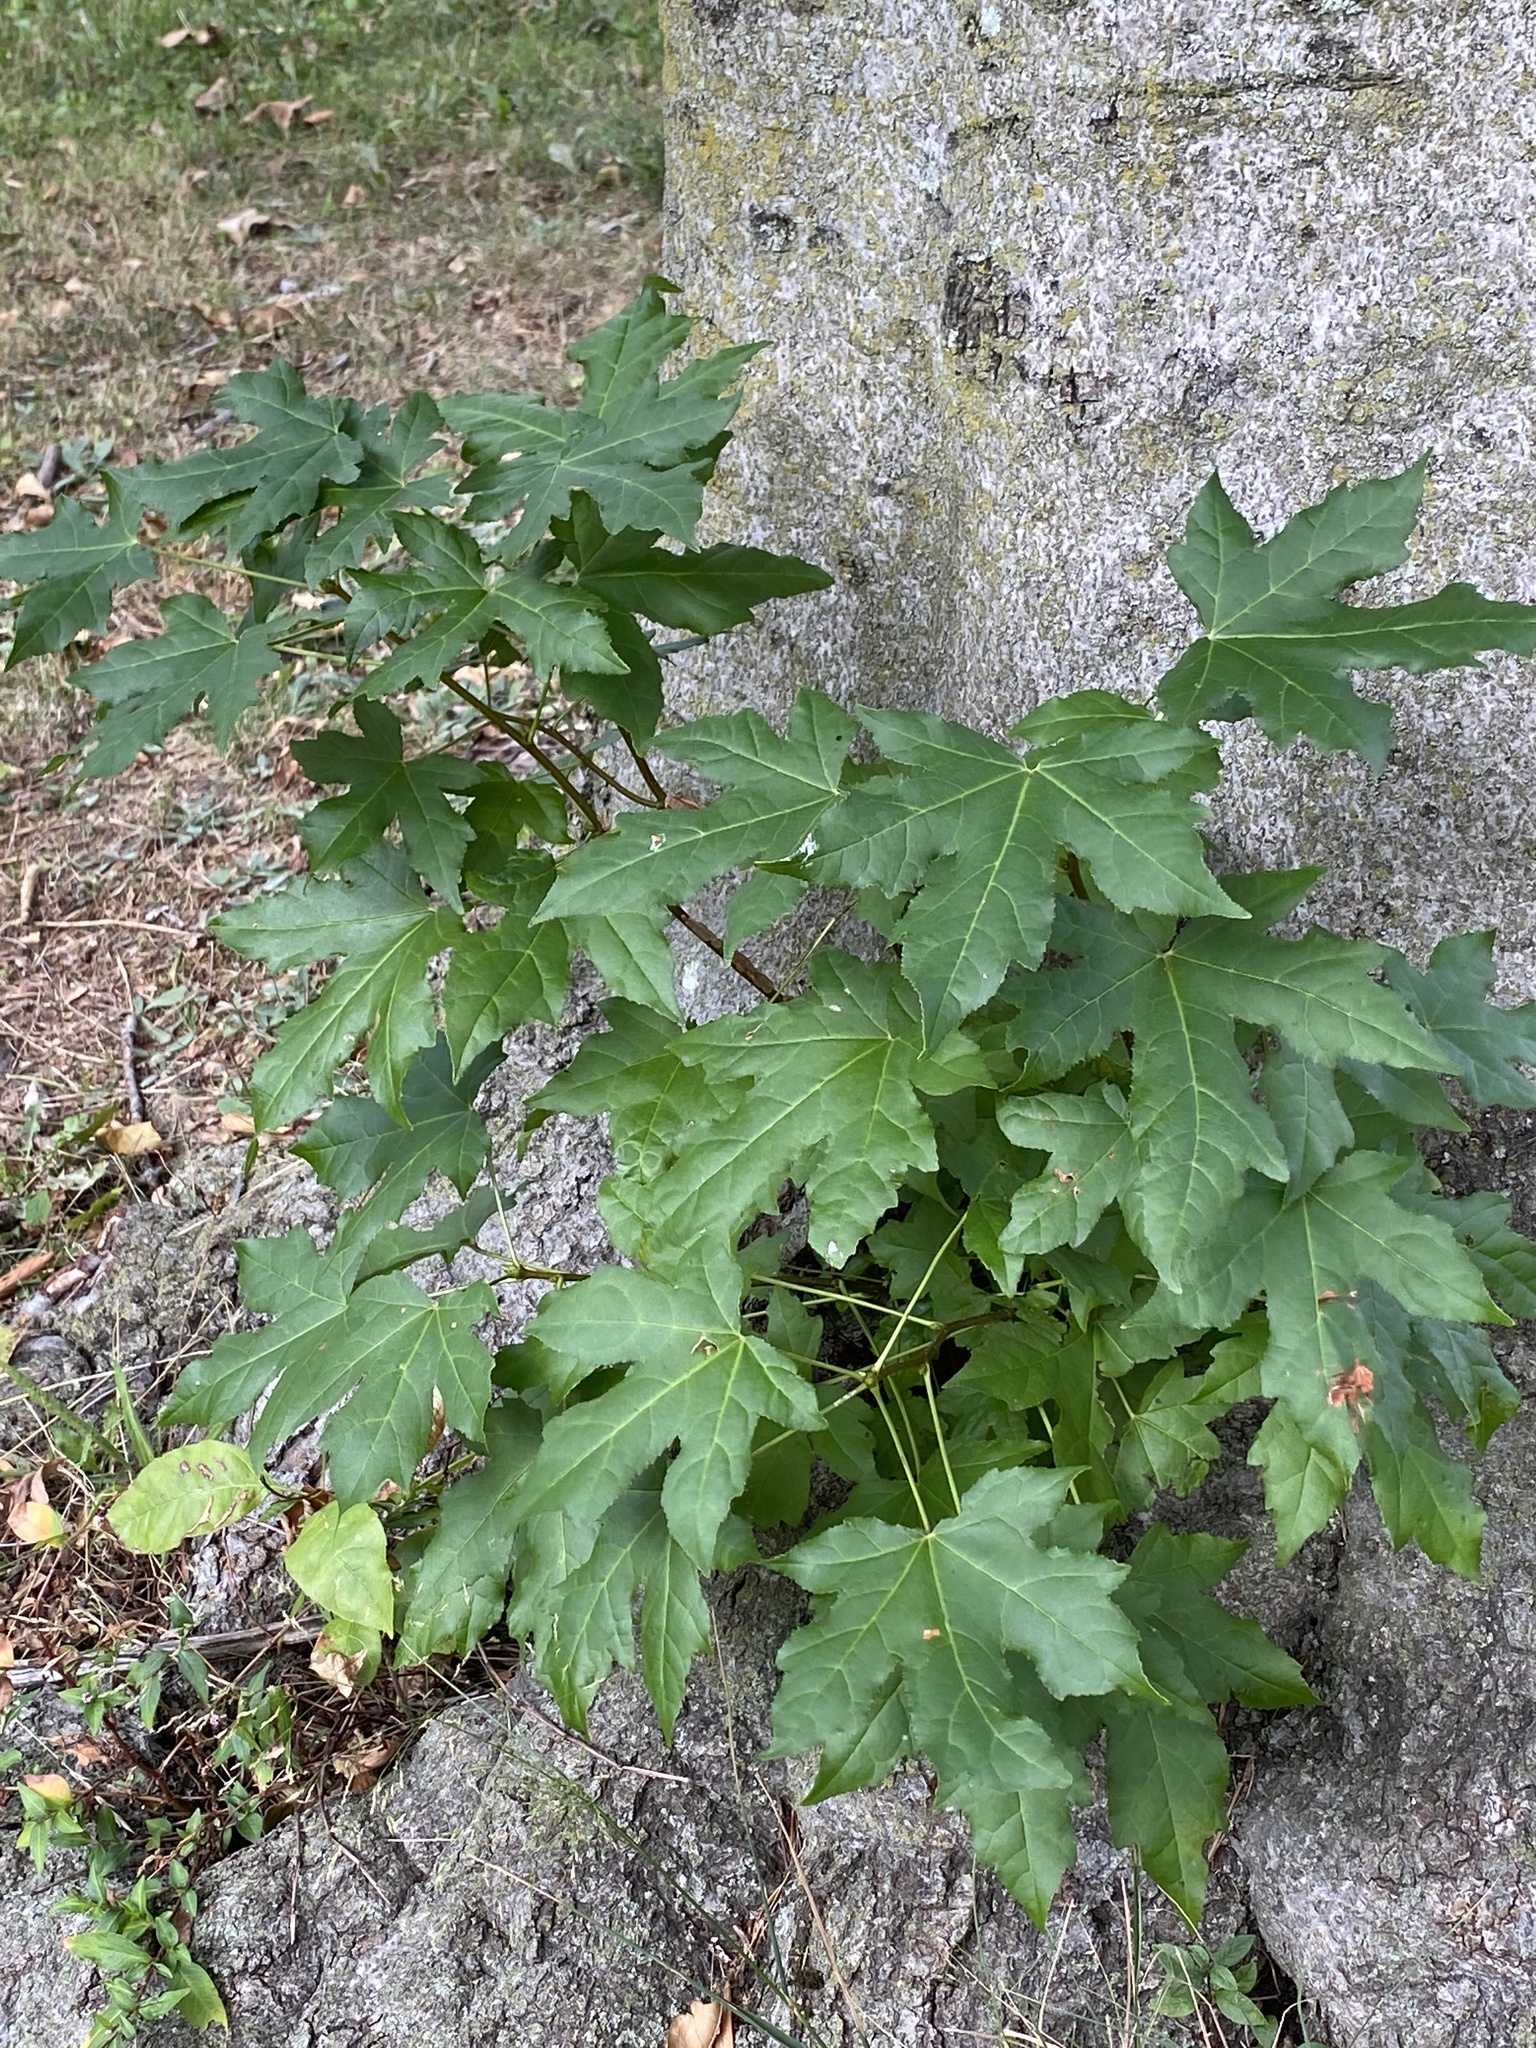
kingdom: Plantae
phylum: Tracheophyta
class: Magnoliopsida
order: Saxifragales
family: Altingiaceae
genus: Liquidambar
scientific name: Liquidambar styraciflua
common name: Sweet gum
